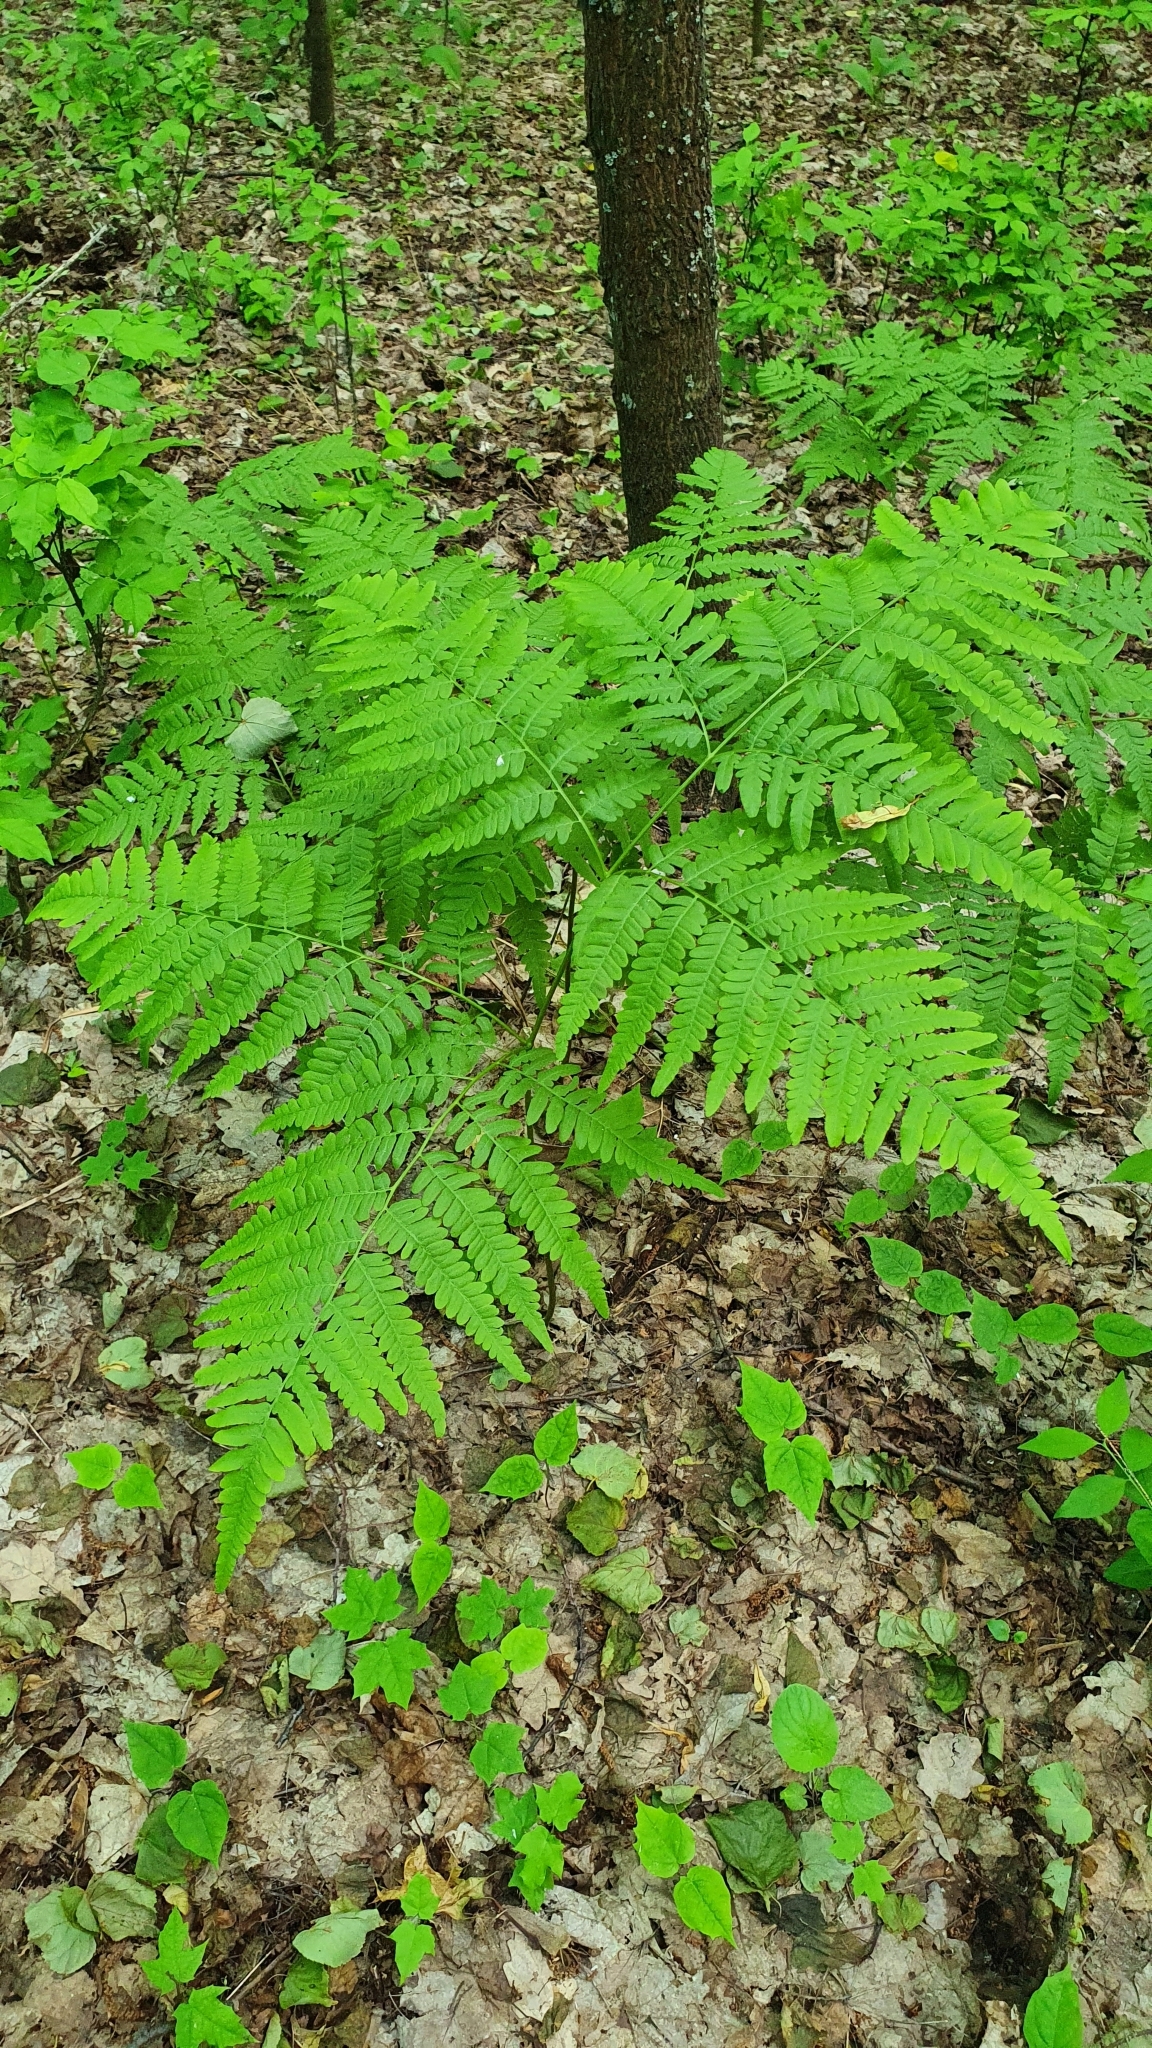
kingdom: Plantae
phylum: Tracheophyta
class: Polypodiopsida
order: Polypodiales
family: Dennstaedtiaceae
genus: Pteridium
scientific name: Pteridium aquilinum
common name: Bracken
